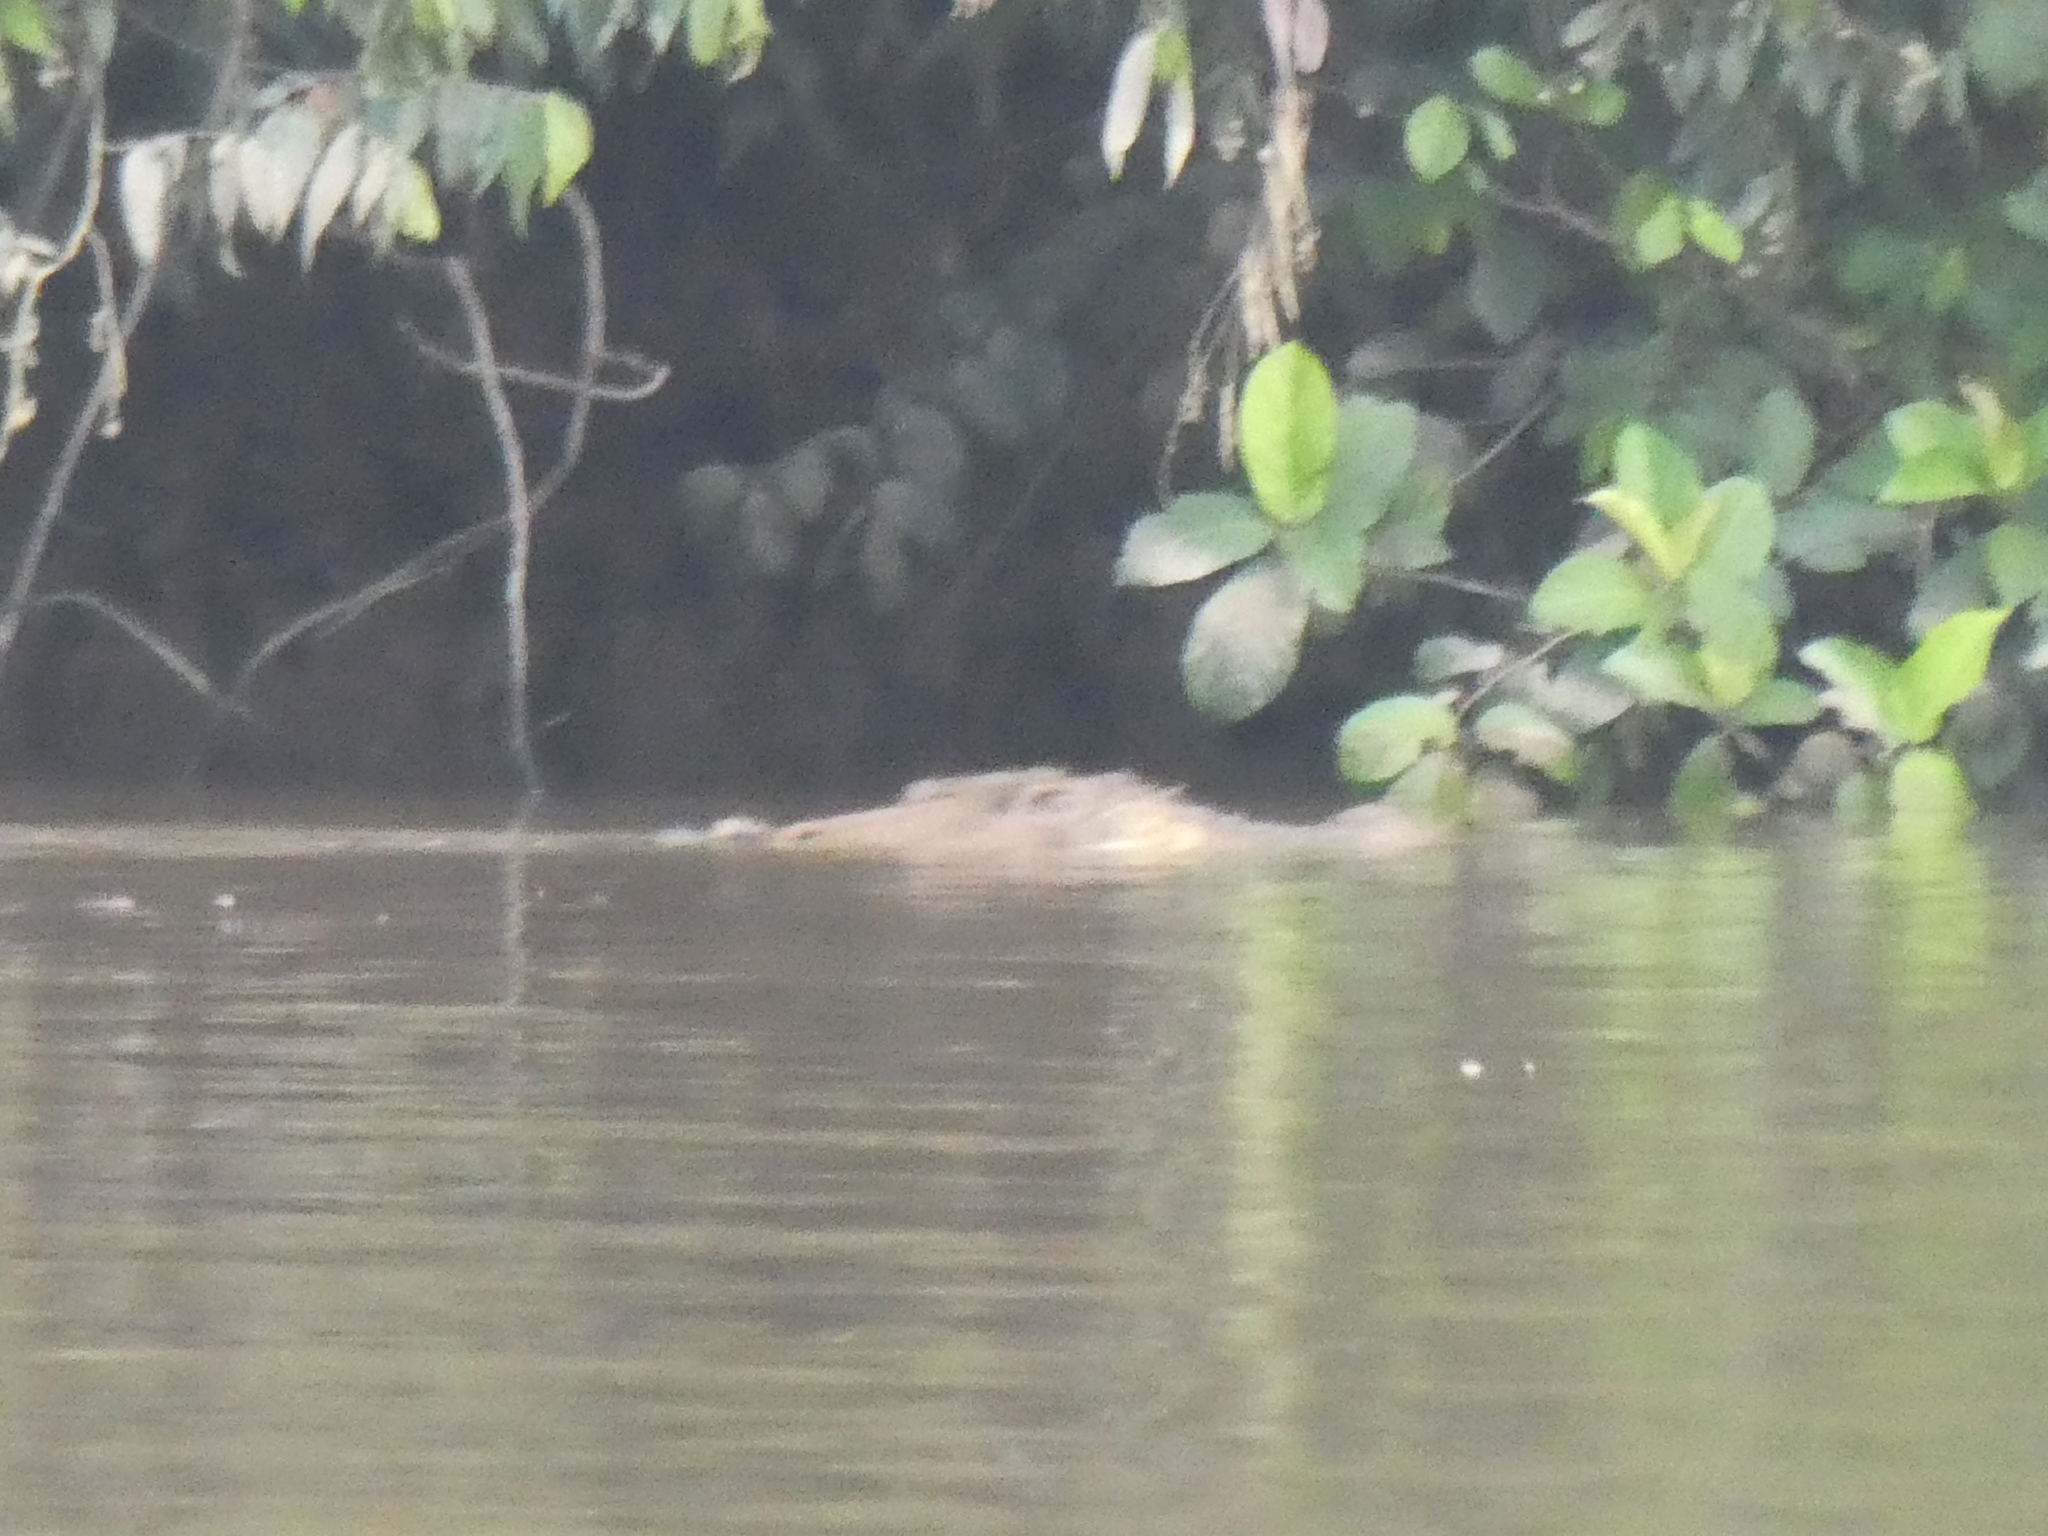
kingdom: Animalia
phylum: Chordata
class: Crocodylia
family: Crocodylidae
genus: Crocodylus
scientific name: Crocodylus porosus
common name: Saltwater crocodile
